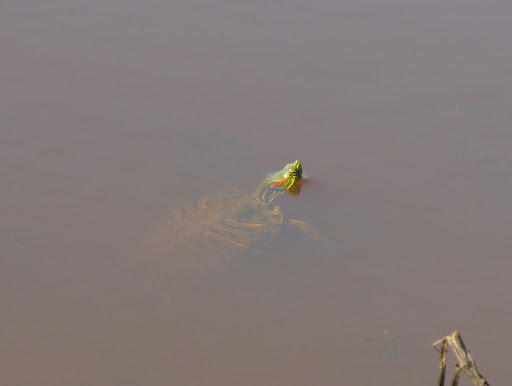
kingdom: Animalia
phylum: Chordata
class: Testudines
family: Emydidae
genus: Trachemys
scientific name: Trachemys scripta
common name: Slider
